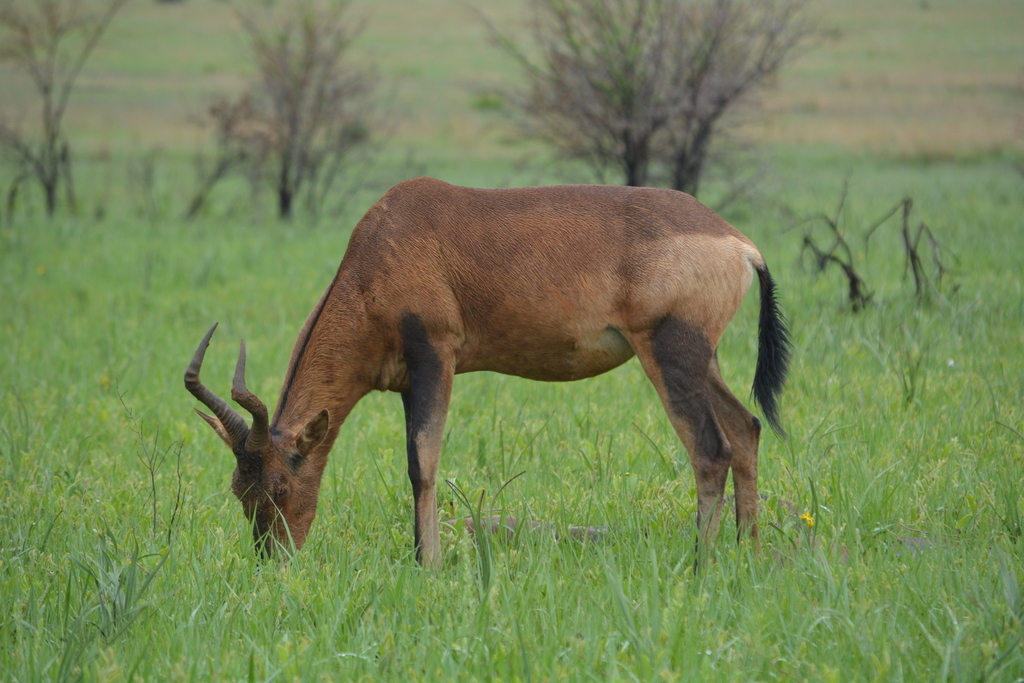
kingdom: Animalia
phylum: Chordata
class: Mammalia
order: Artiodactyla
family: Bovidae
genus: Alcelaphus
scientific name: Alcelaphus caama
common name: Red hartebeest
